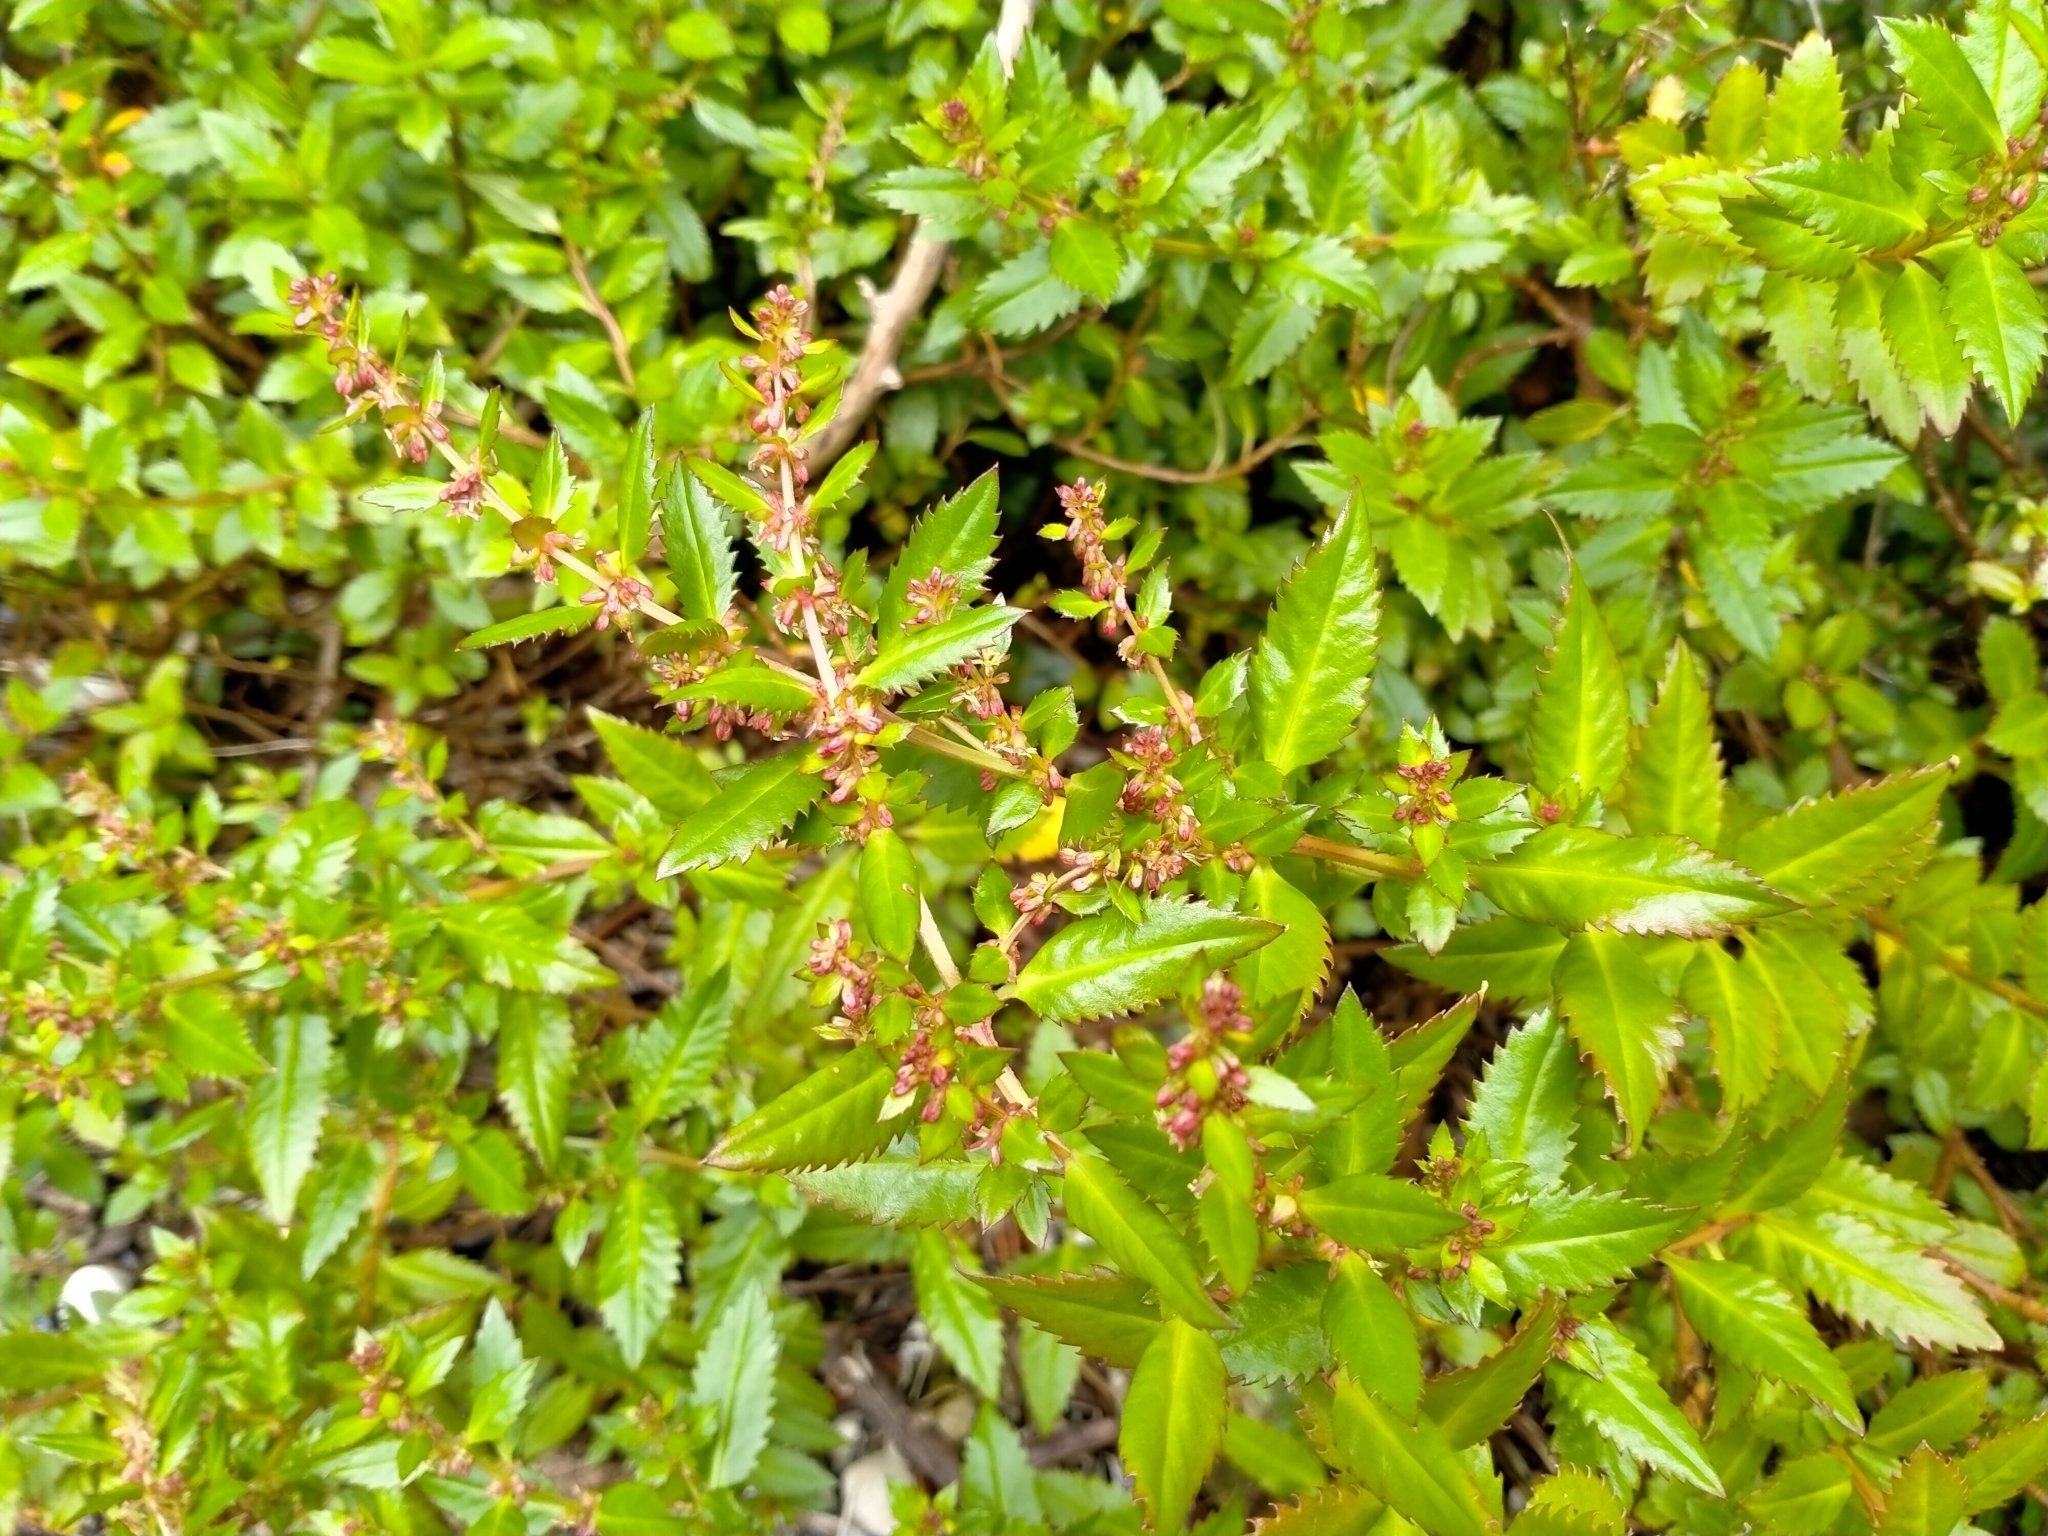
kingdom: Plantae
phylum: Tracheophyta
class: Magnoliopsida
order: Saxifragales
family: Haloragaceae
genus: Haloragis
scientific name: Haloragis erecta
